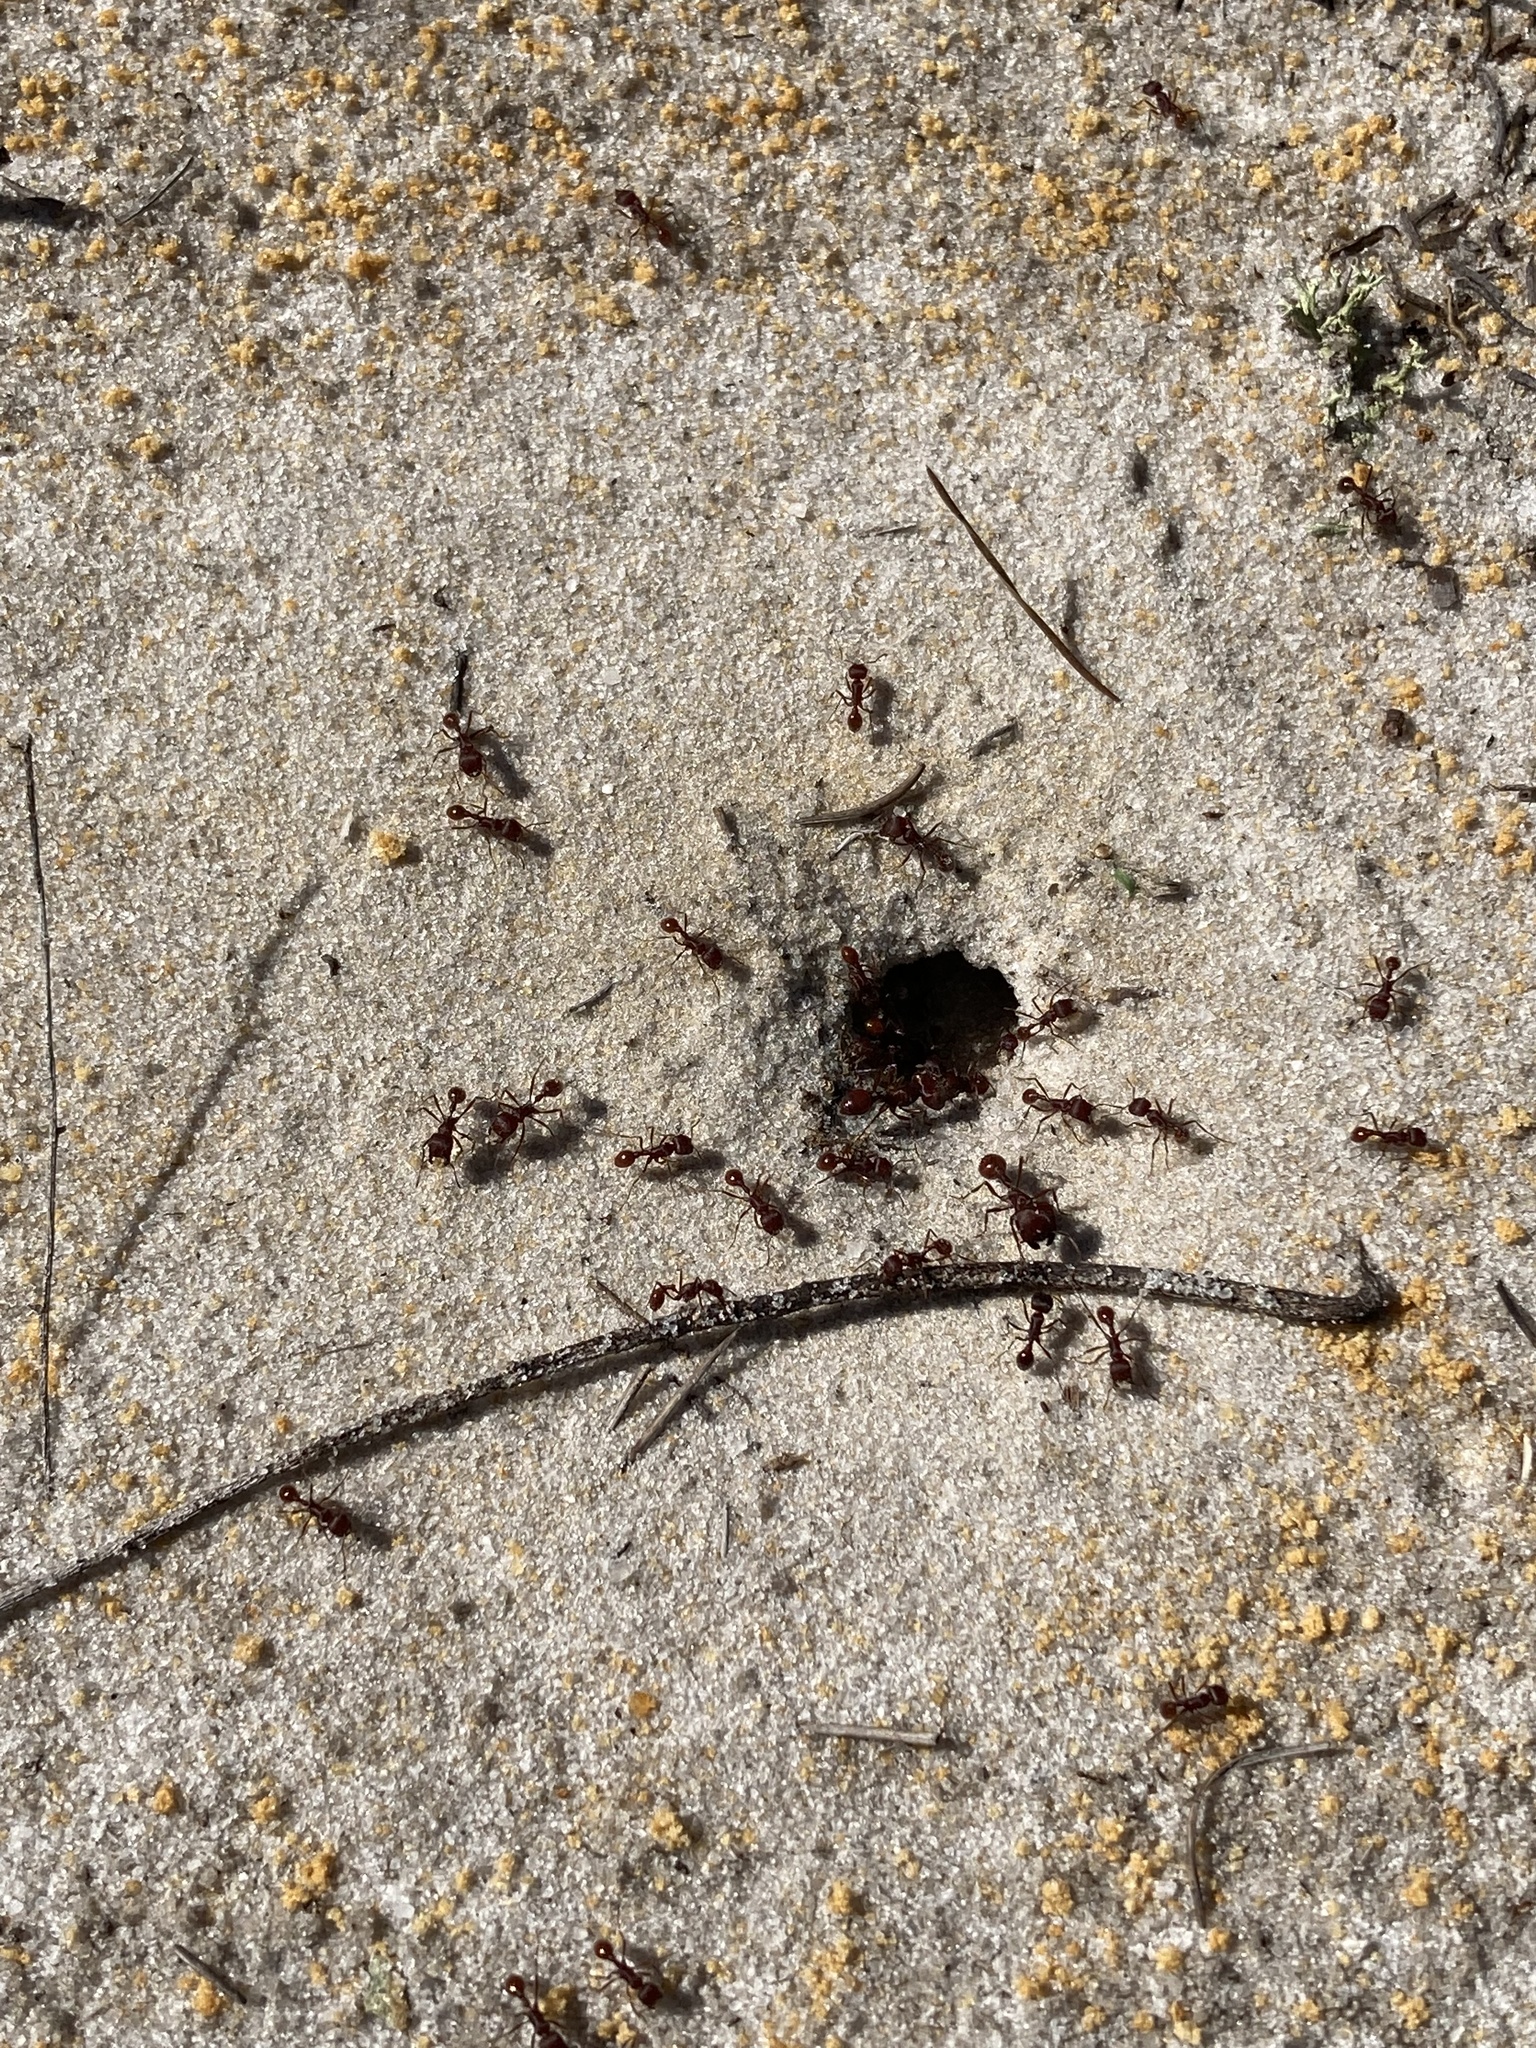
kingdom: Animalia
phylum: Arthropoda
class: Insecta
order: Hymenoptera
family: Formicidae
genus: Pogonomyrmex
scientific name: Pogonomyrmex badius
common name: Florida harvester ant
